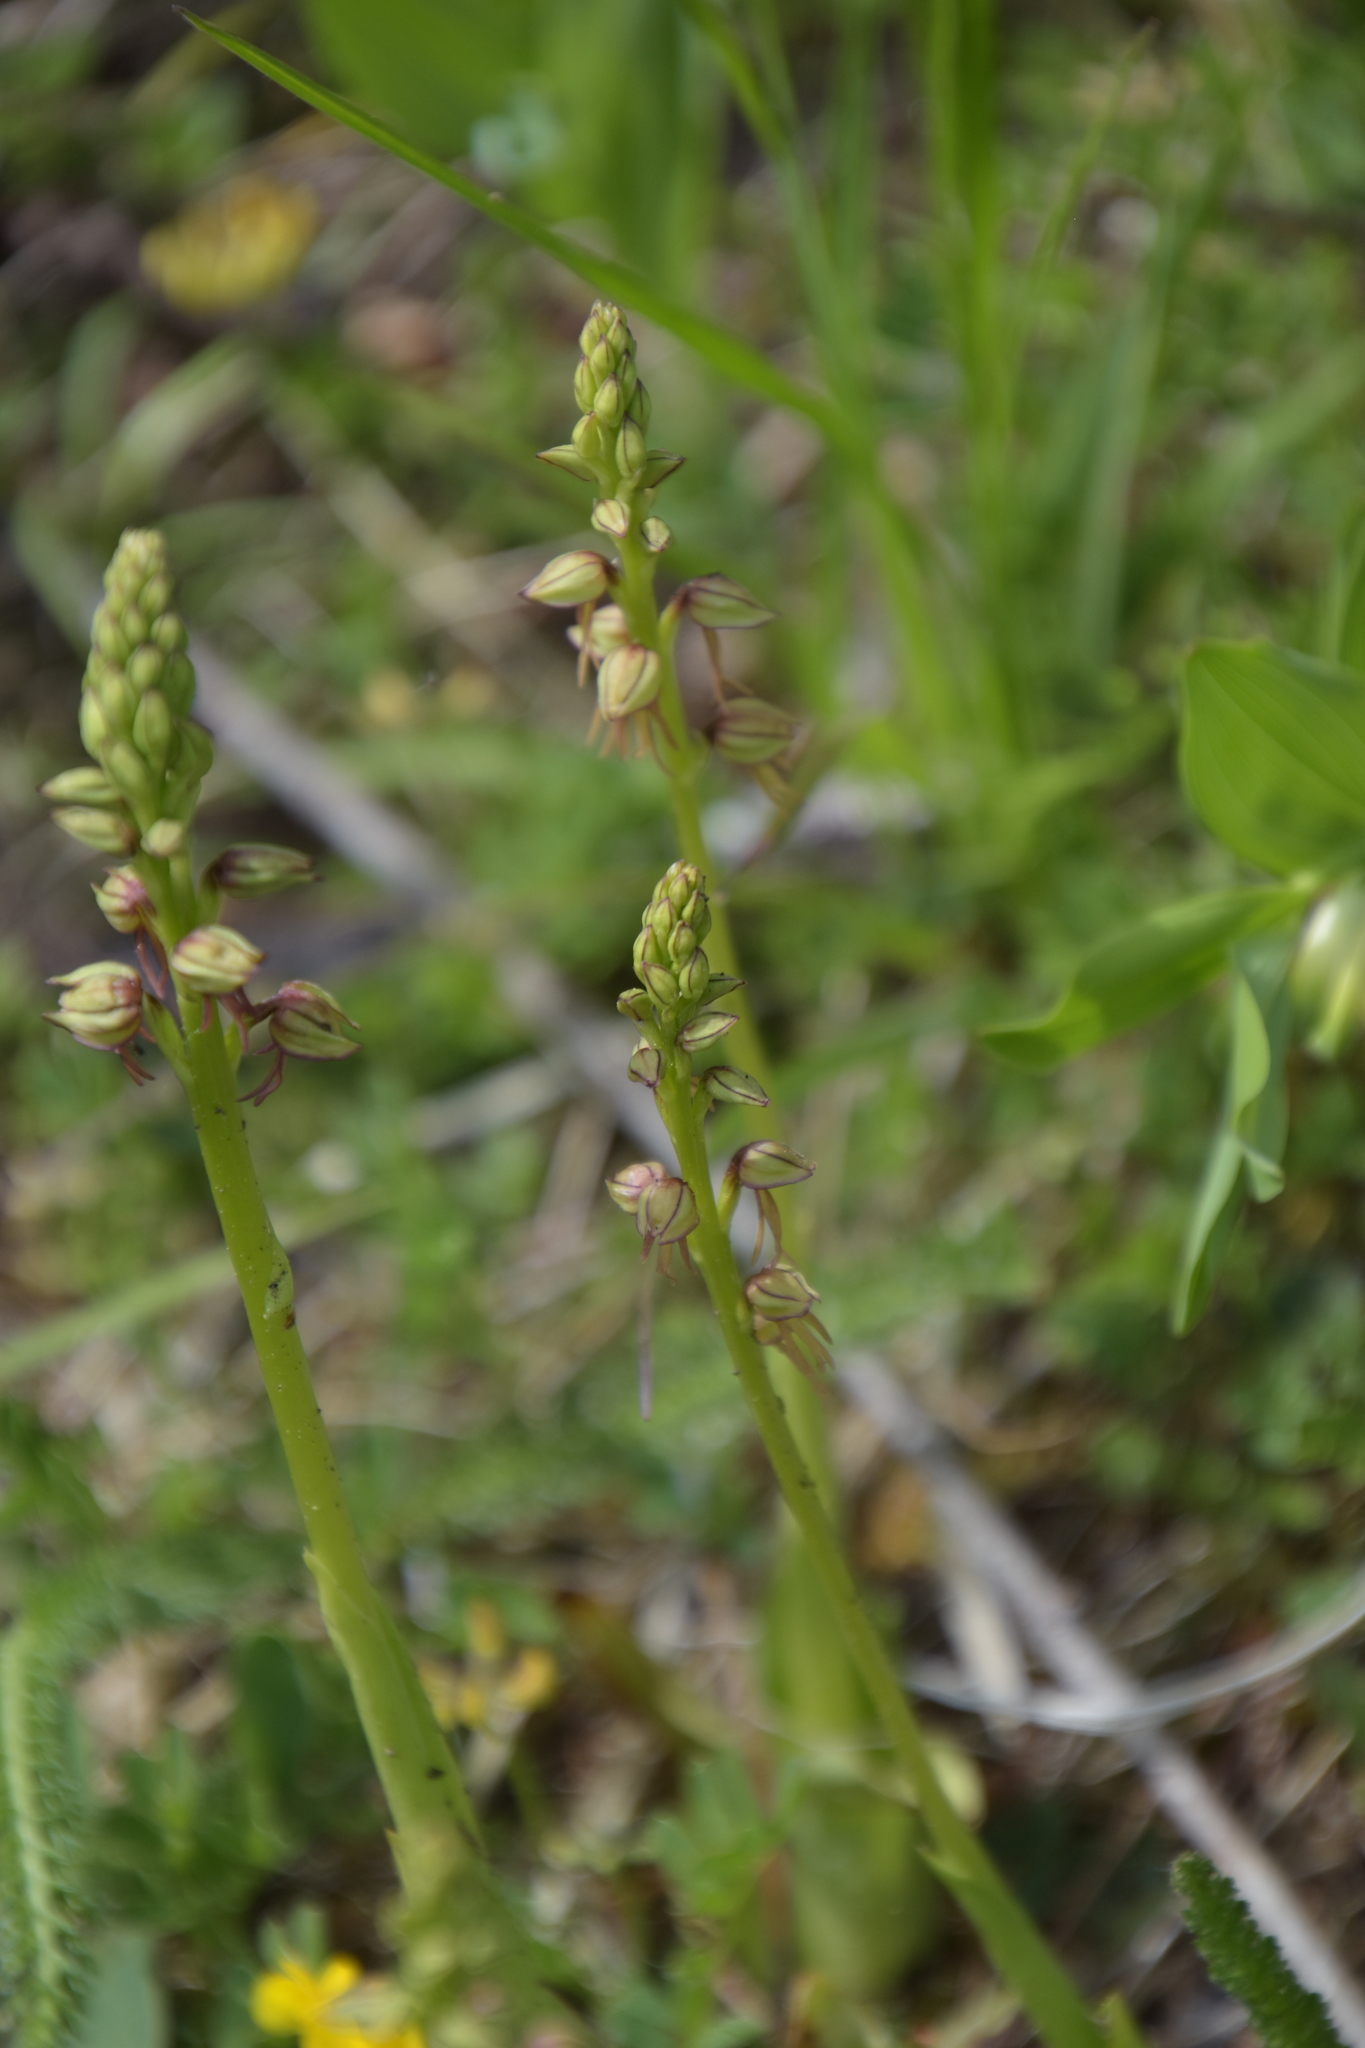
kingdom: Plantae
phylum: Tracheophyta
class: Liliopsida
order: Asparagales
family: Orchidaceae
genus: Orchis
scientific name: Orchis anthropophora
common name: Man orchid
